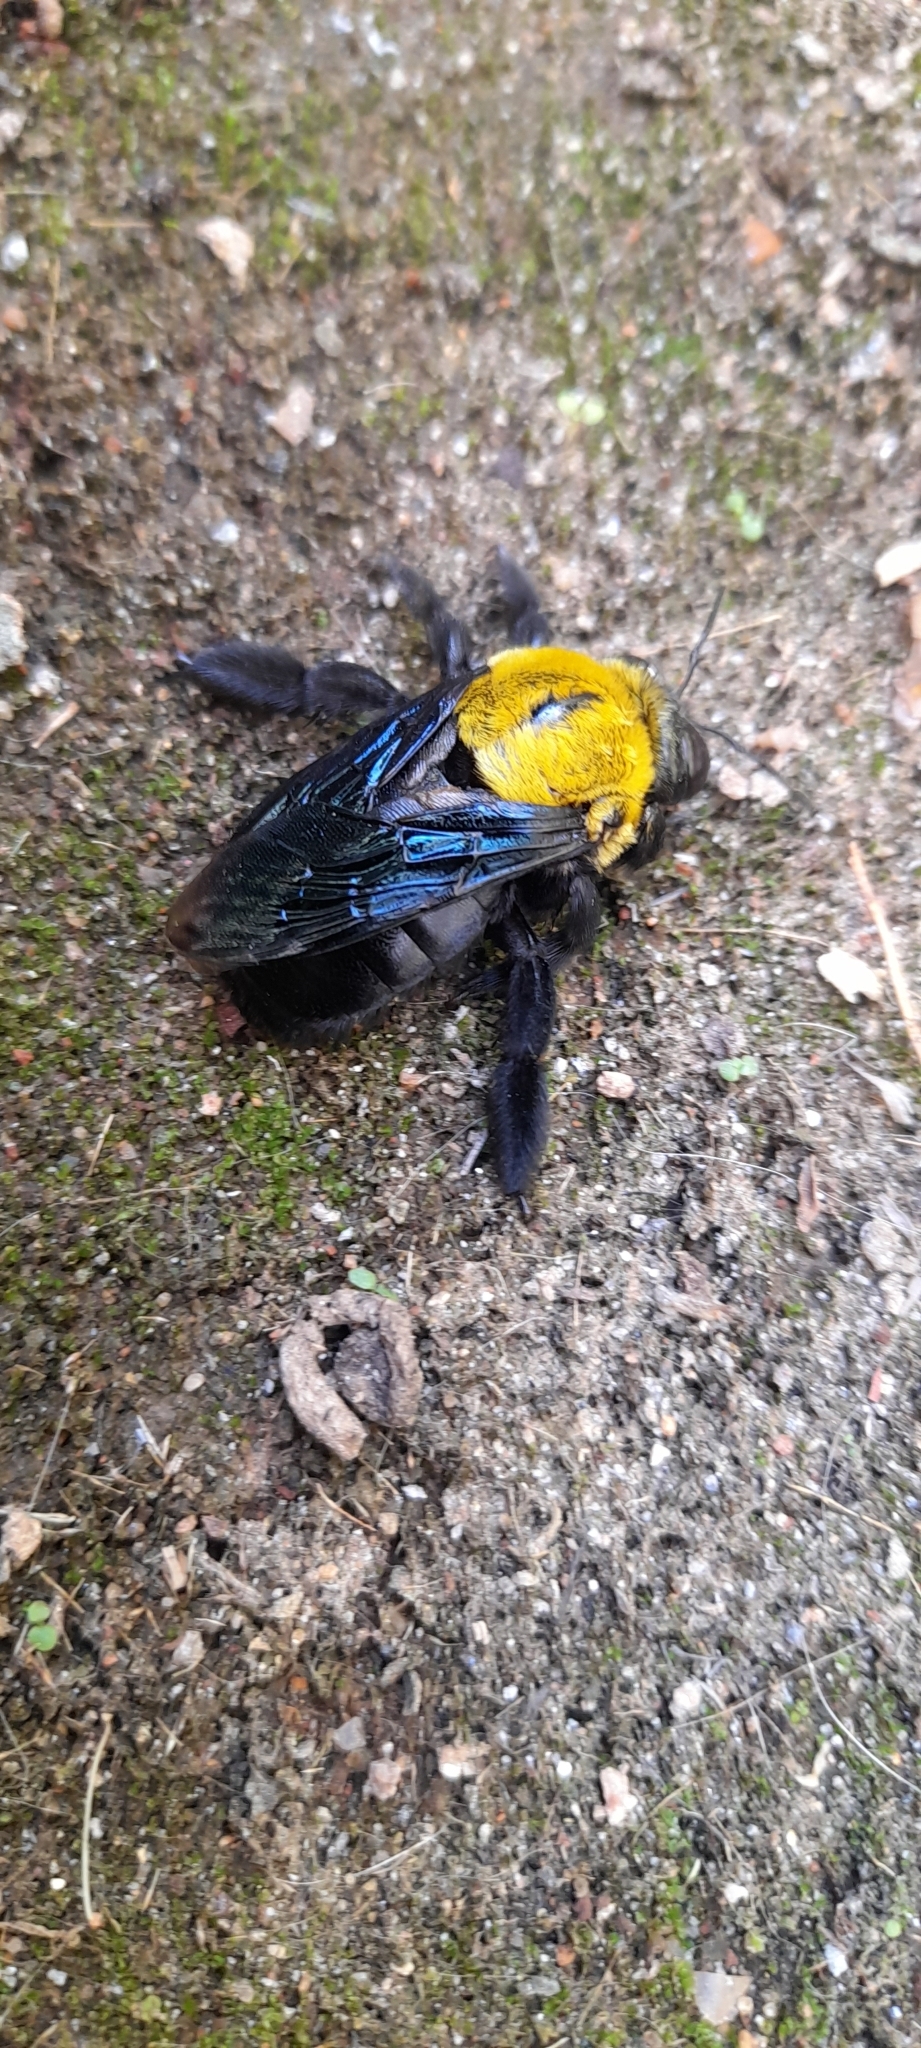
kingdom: Animalia
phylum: Arthropoda
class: Insecta
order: Hymenoptera
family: Apidae
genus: Xylocopa
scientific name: Xylocopa ruficornis
